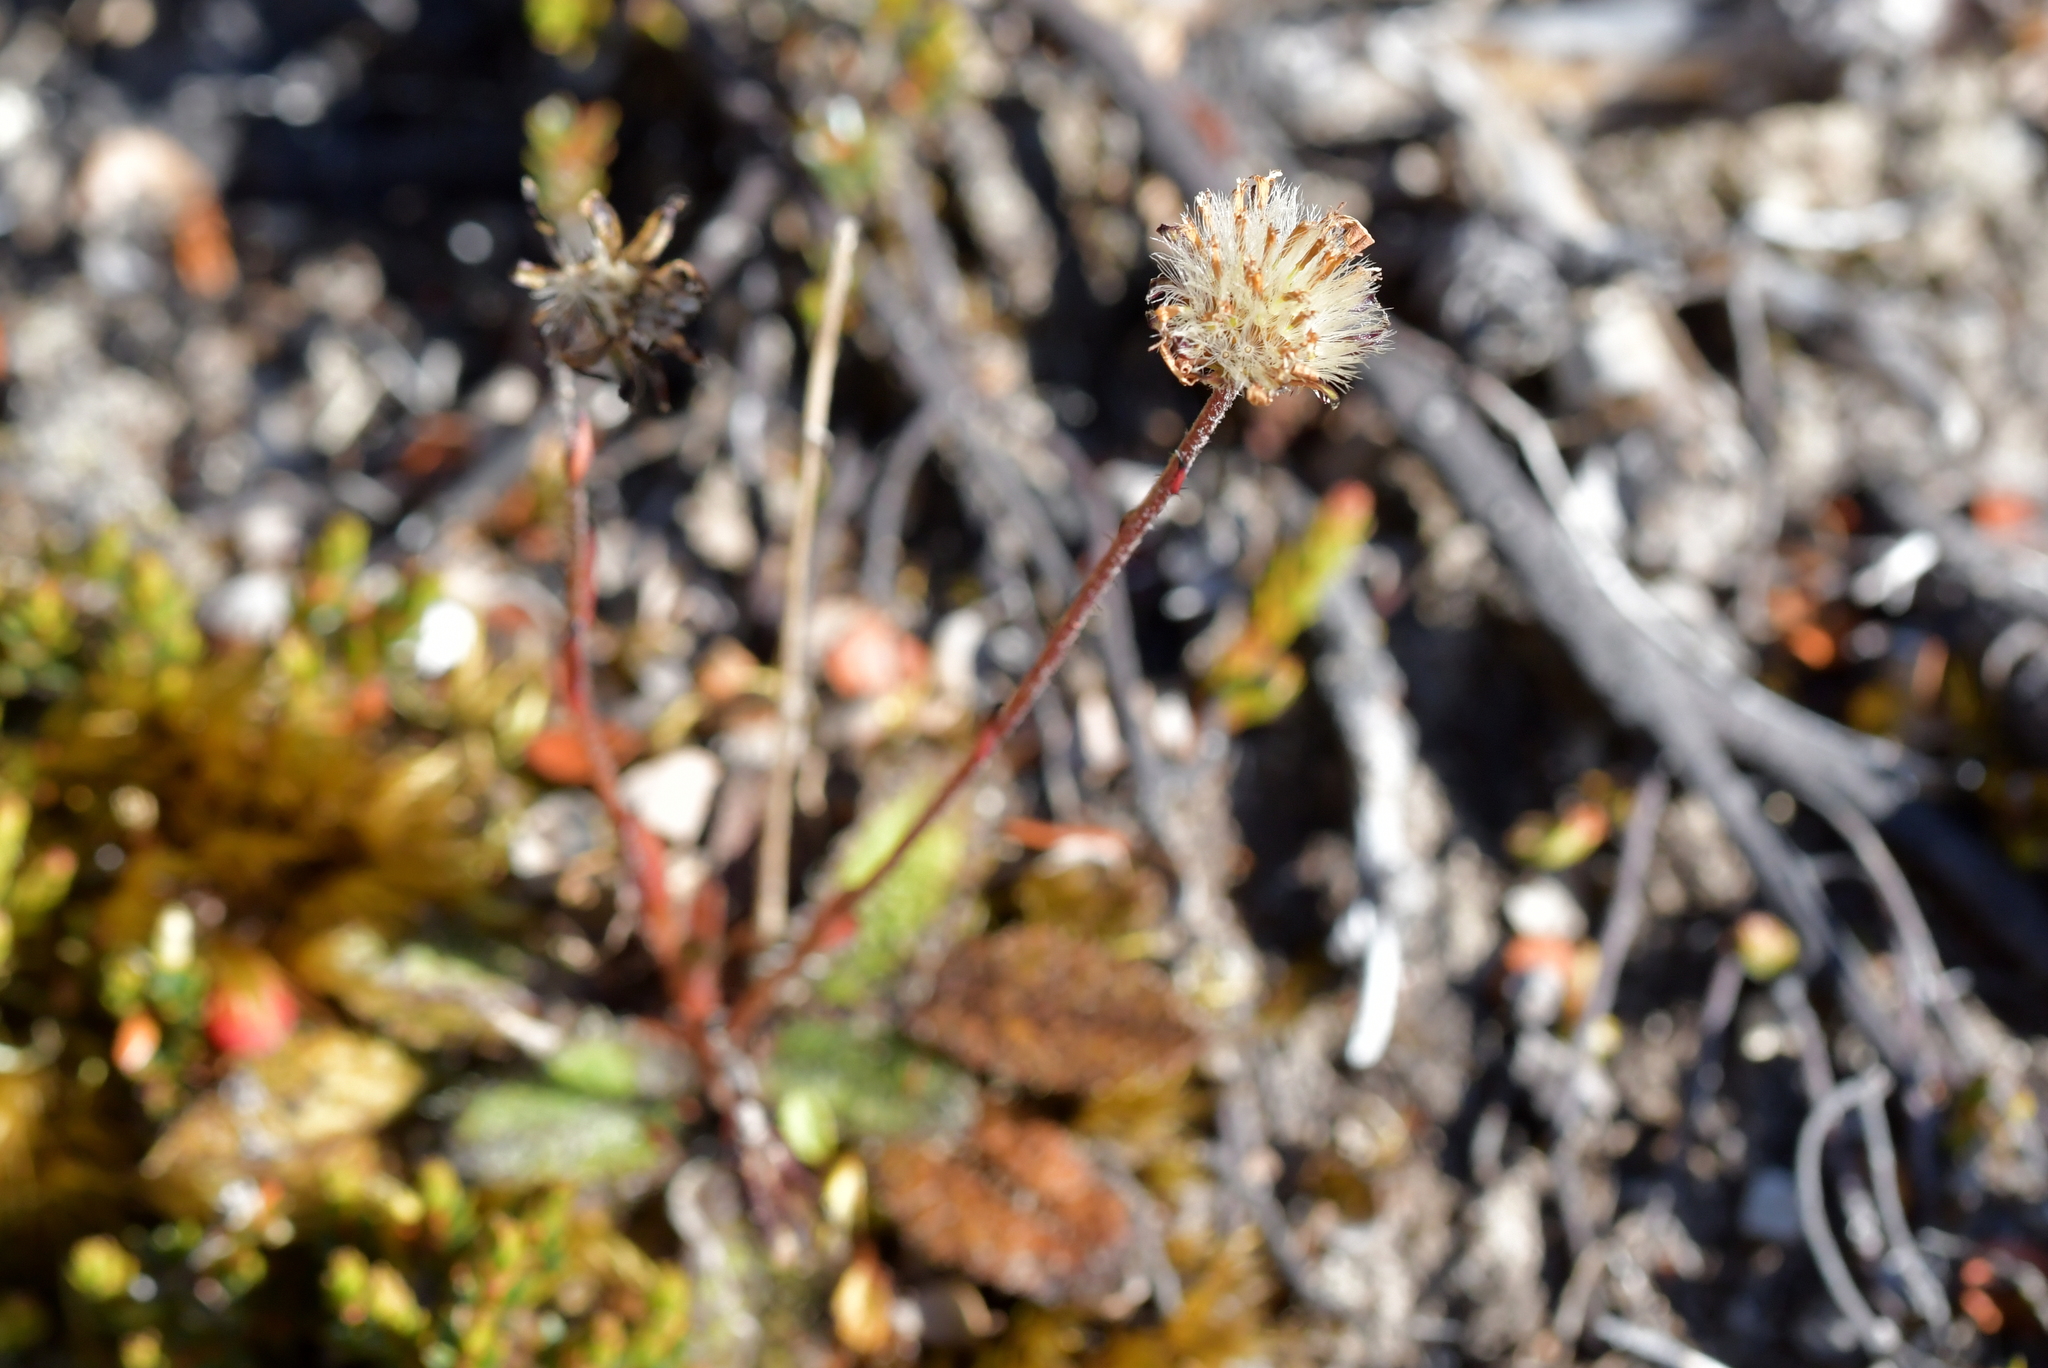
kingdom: Plantae
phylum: Tracheophyta
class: Magnoliopsida
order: Asterales
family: Asteraceae
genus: Brachyglottis
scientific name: Brachyglottis bellidioides
